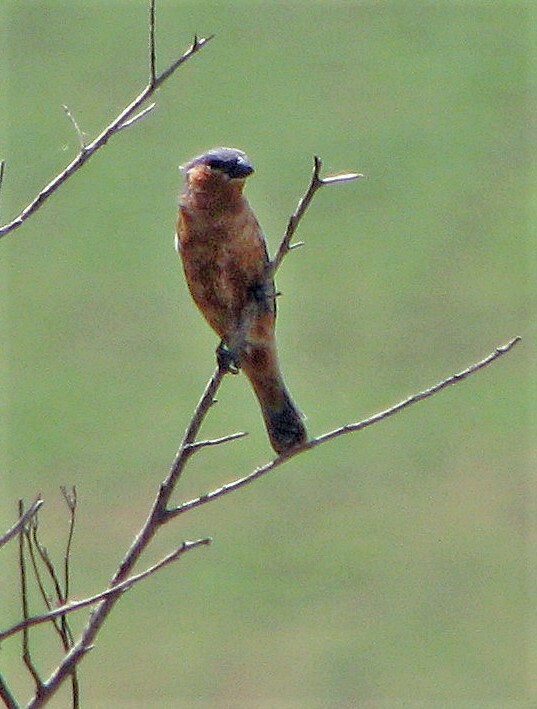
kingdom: Animalia
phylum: Chordata
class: Aves
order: Passeriformes
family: Thraupidae
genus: Sporophila
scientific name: Sporophila hypochroma
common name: Rufous-rumped seedeater
